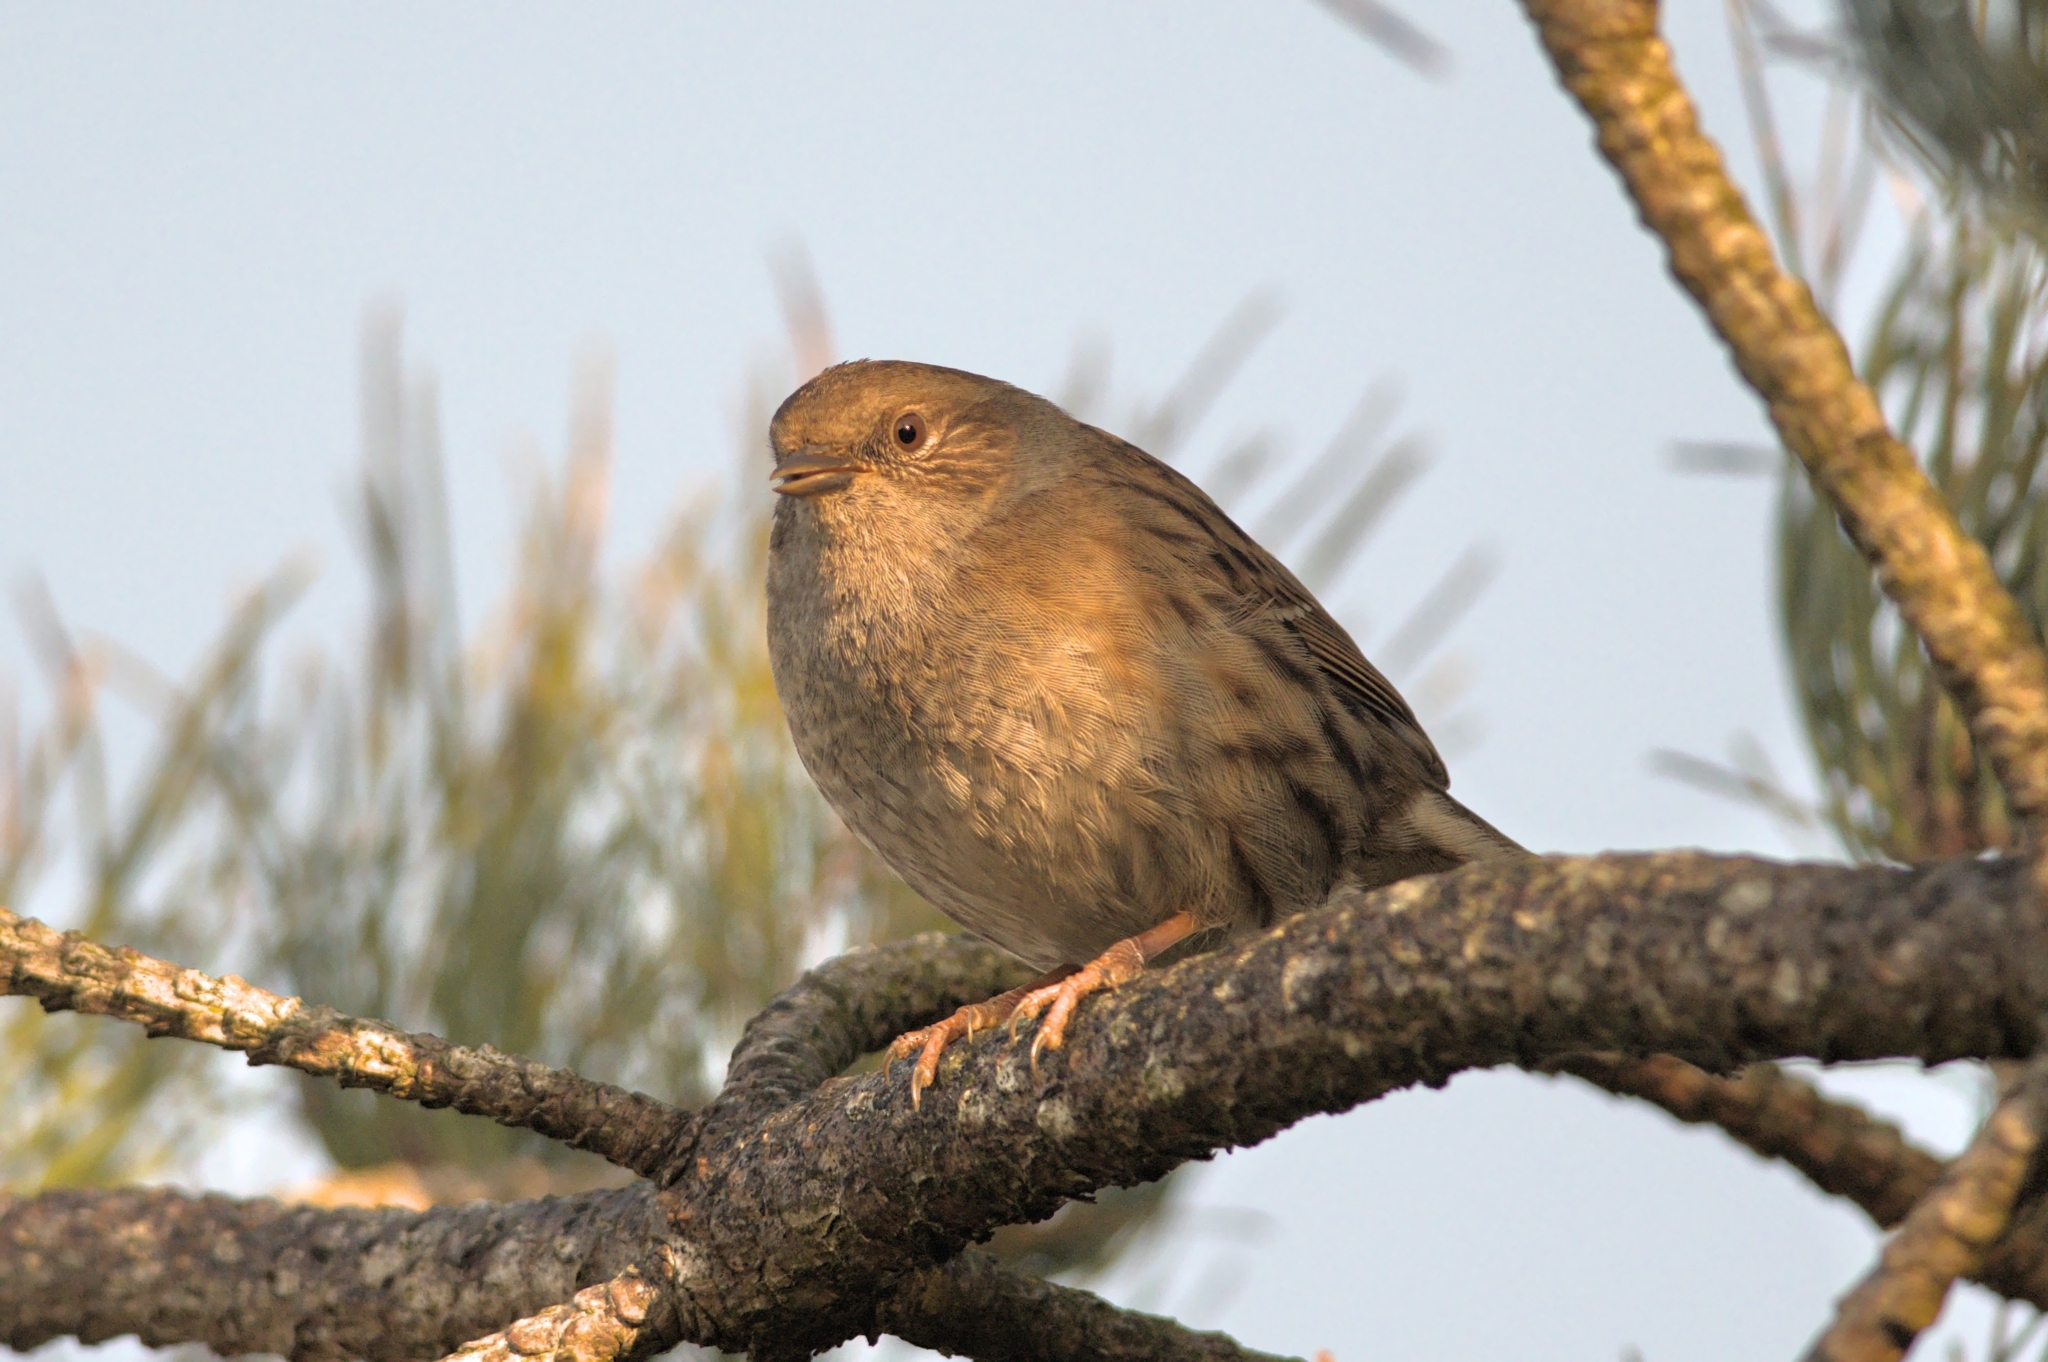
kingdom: Animalia
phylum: Chordata
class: Aves
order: Passeriformes
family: Prunellidae
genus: Prunella
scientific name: Prunella modularis
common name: Dunnock
